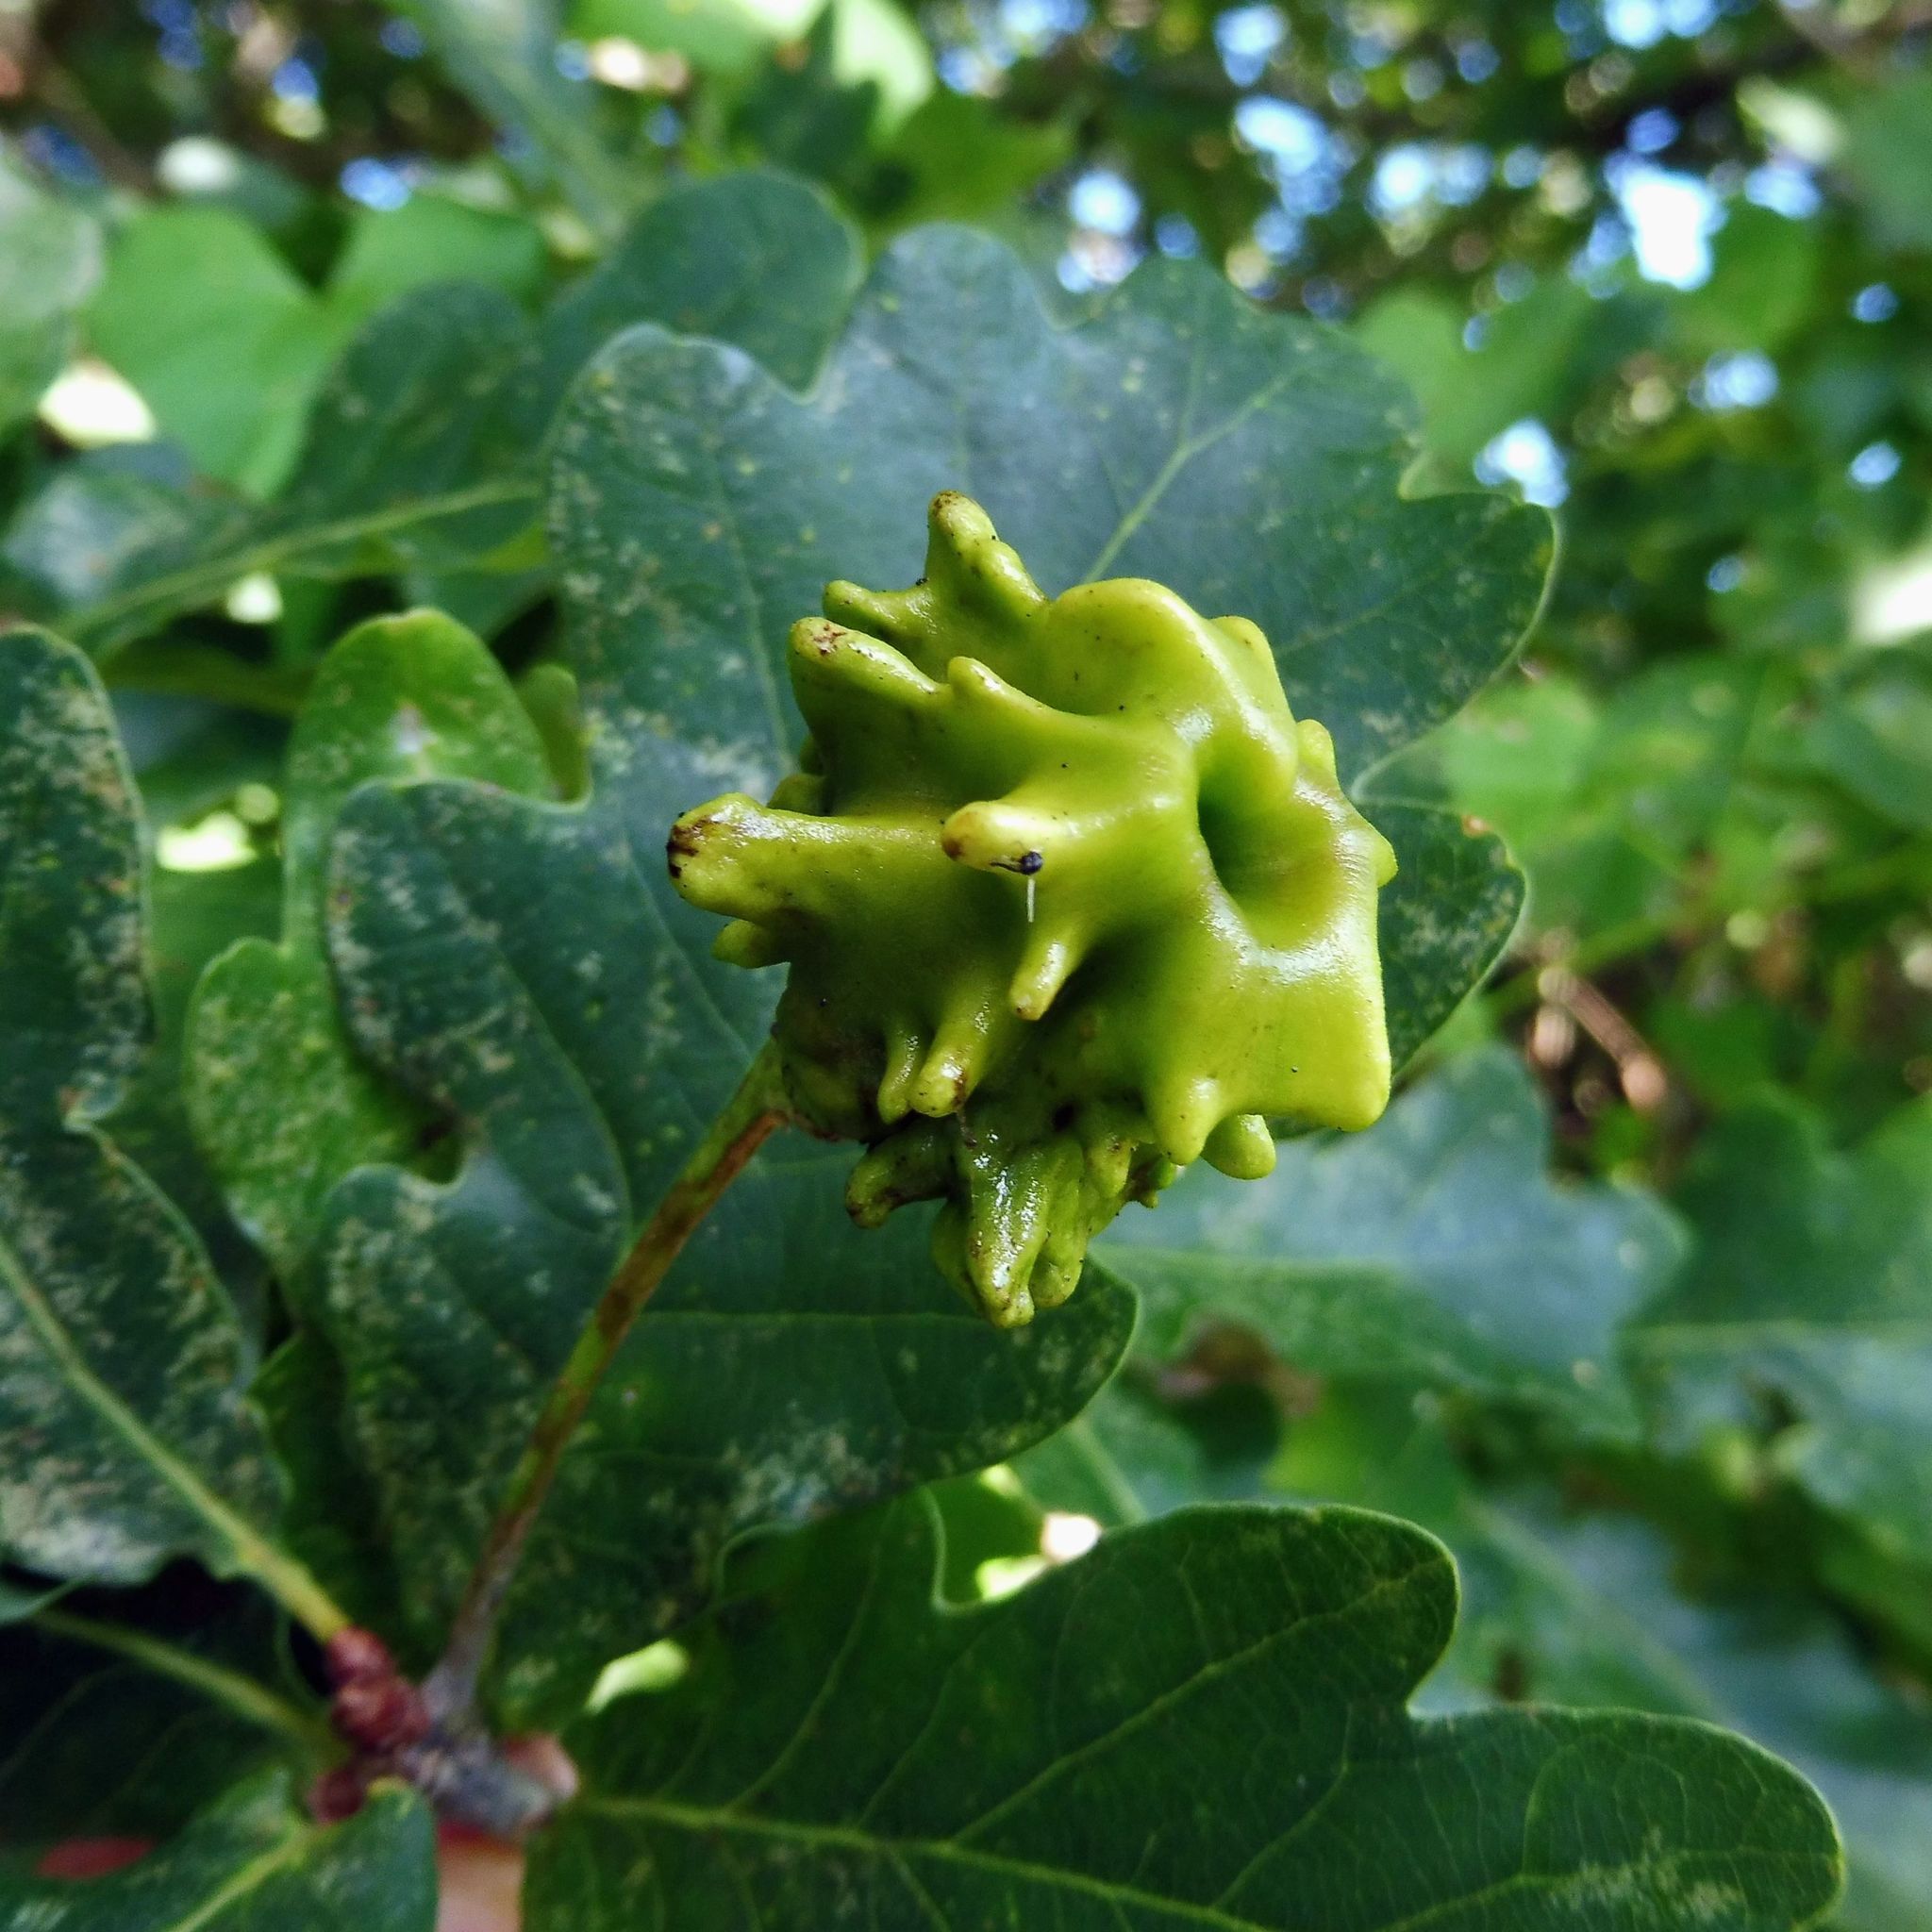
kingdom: Animalia
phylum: Arthropoda
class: Insecta
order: Hymenoptera
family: Cynipidae
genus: Andricus
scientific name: Andricus quercuscalicis
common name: Knopper gall
